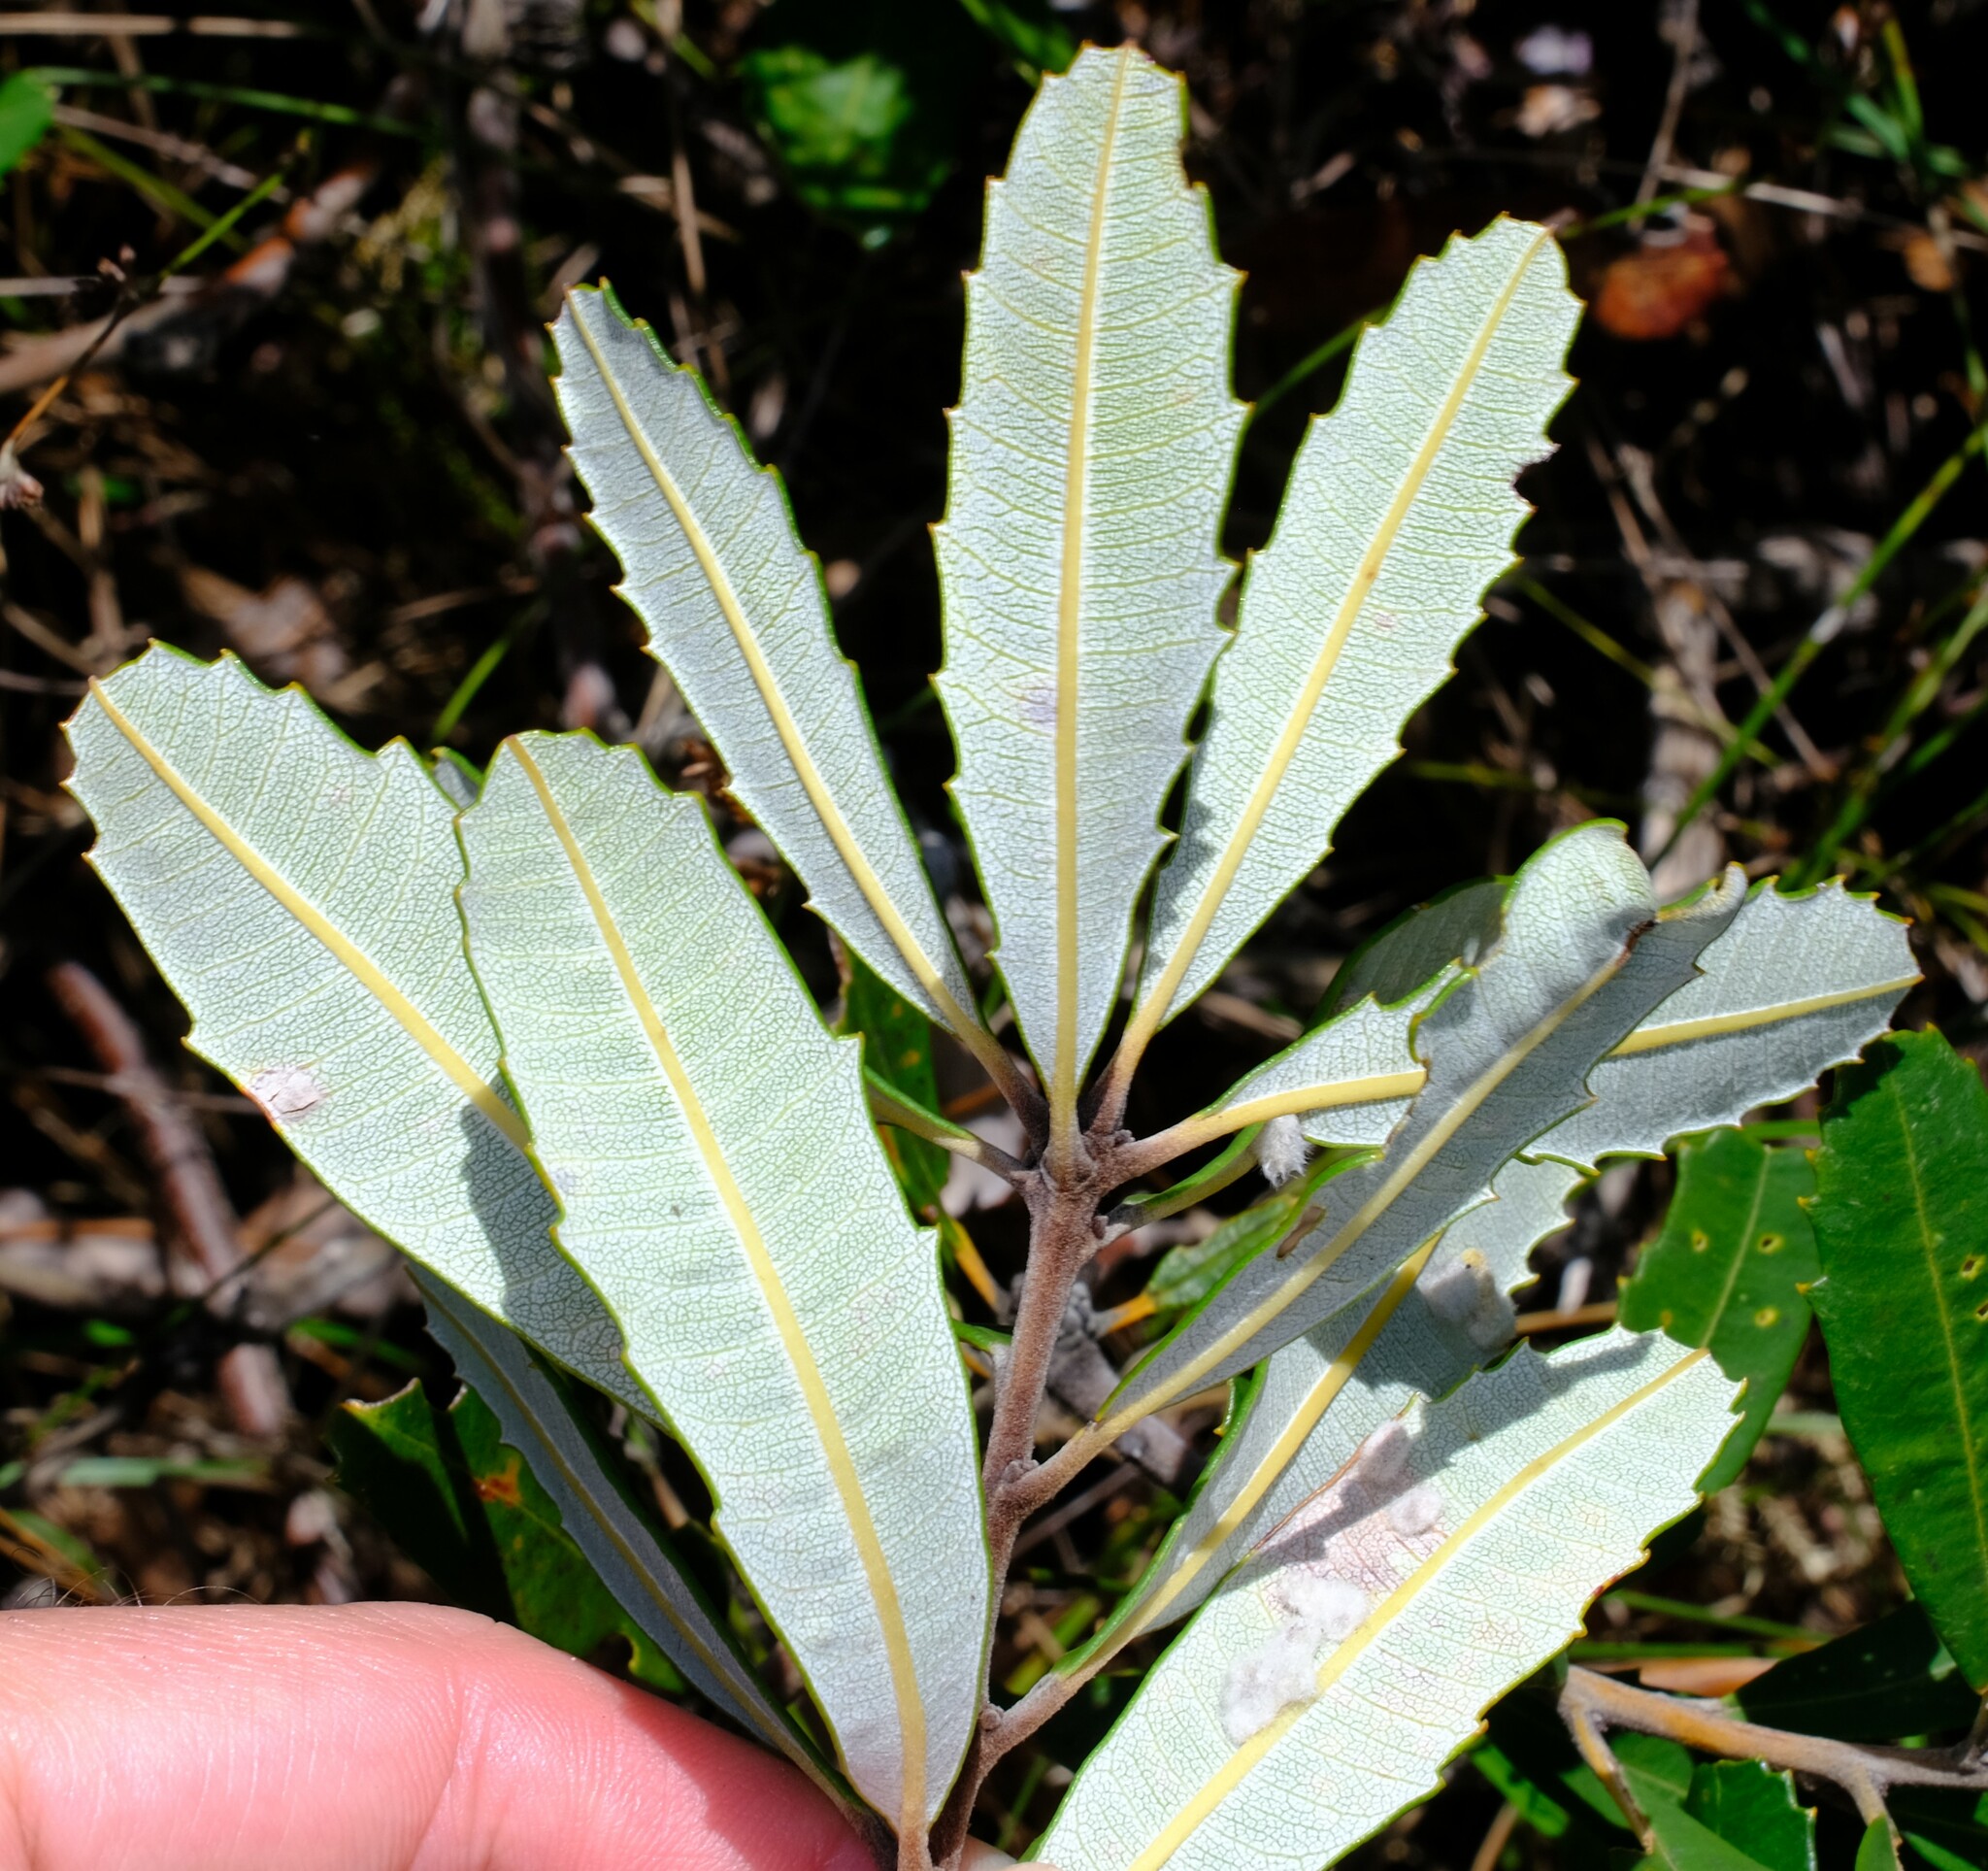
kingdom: Plantae
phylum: Tracheophyta
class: Magnoliopsida
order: Proteales
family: Proteaceae
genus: Banksia
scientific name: Banksia oblongifolia
